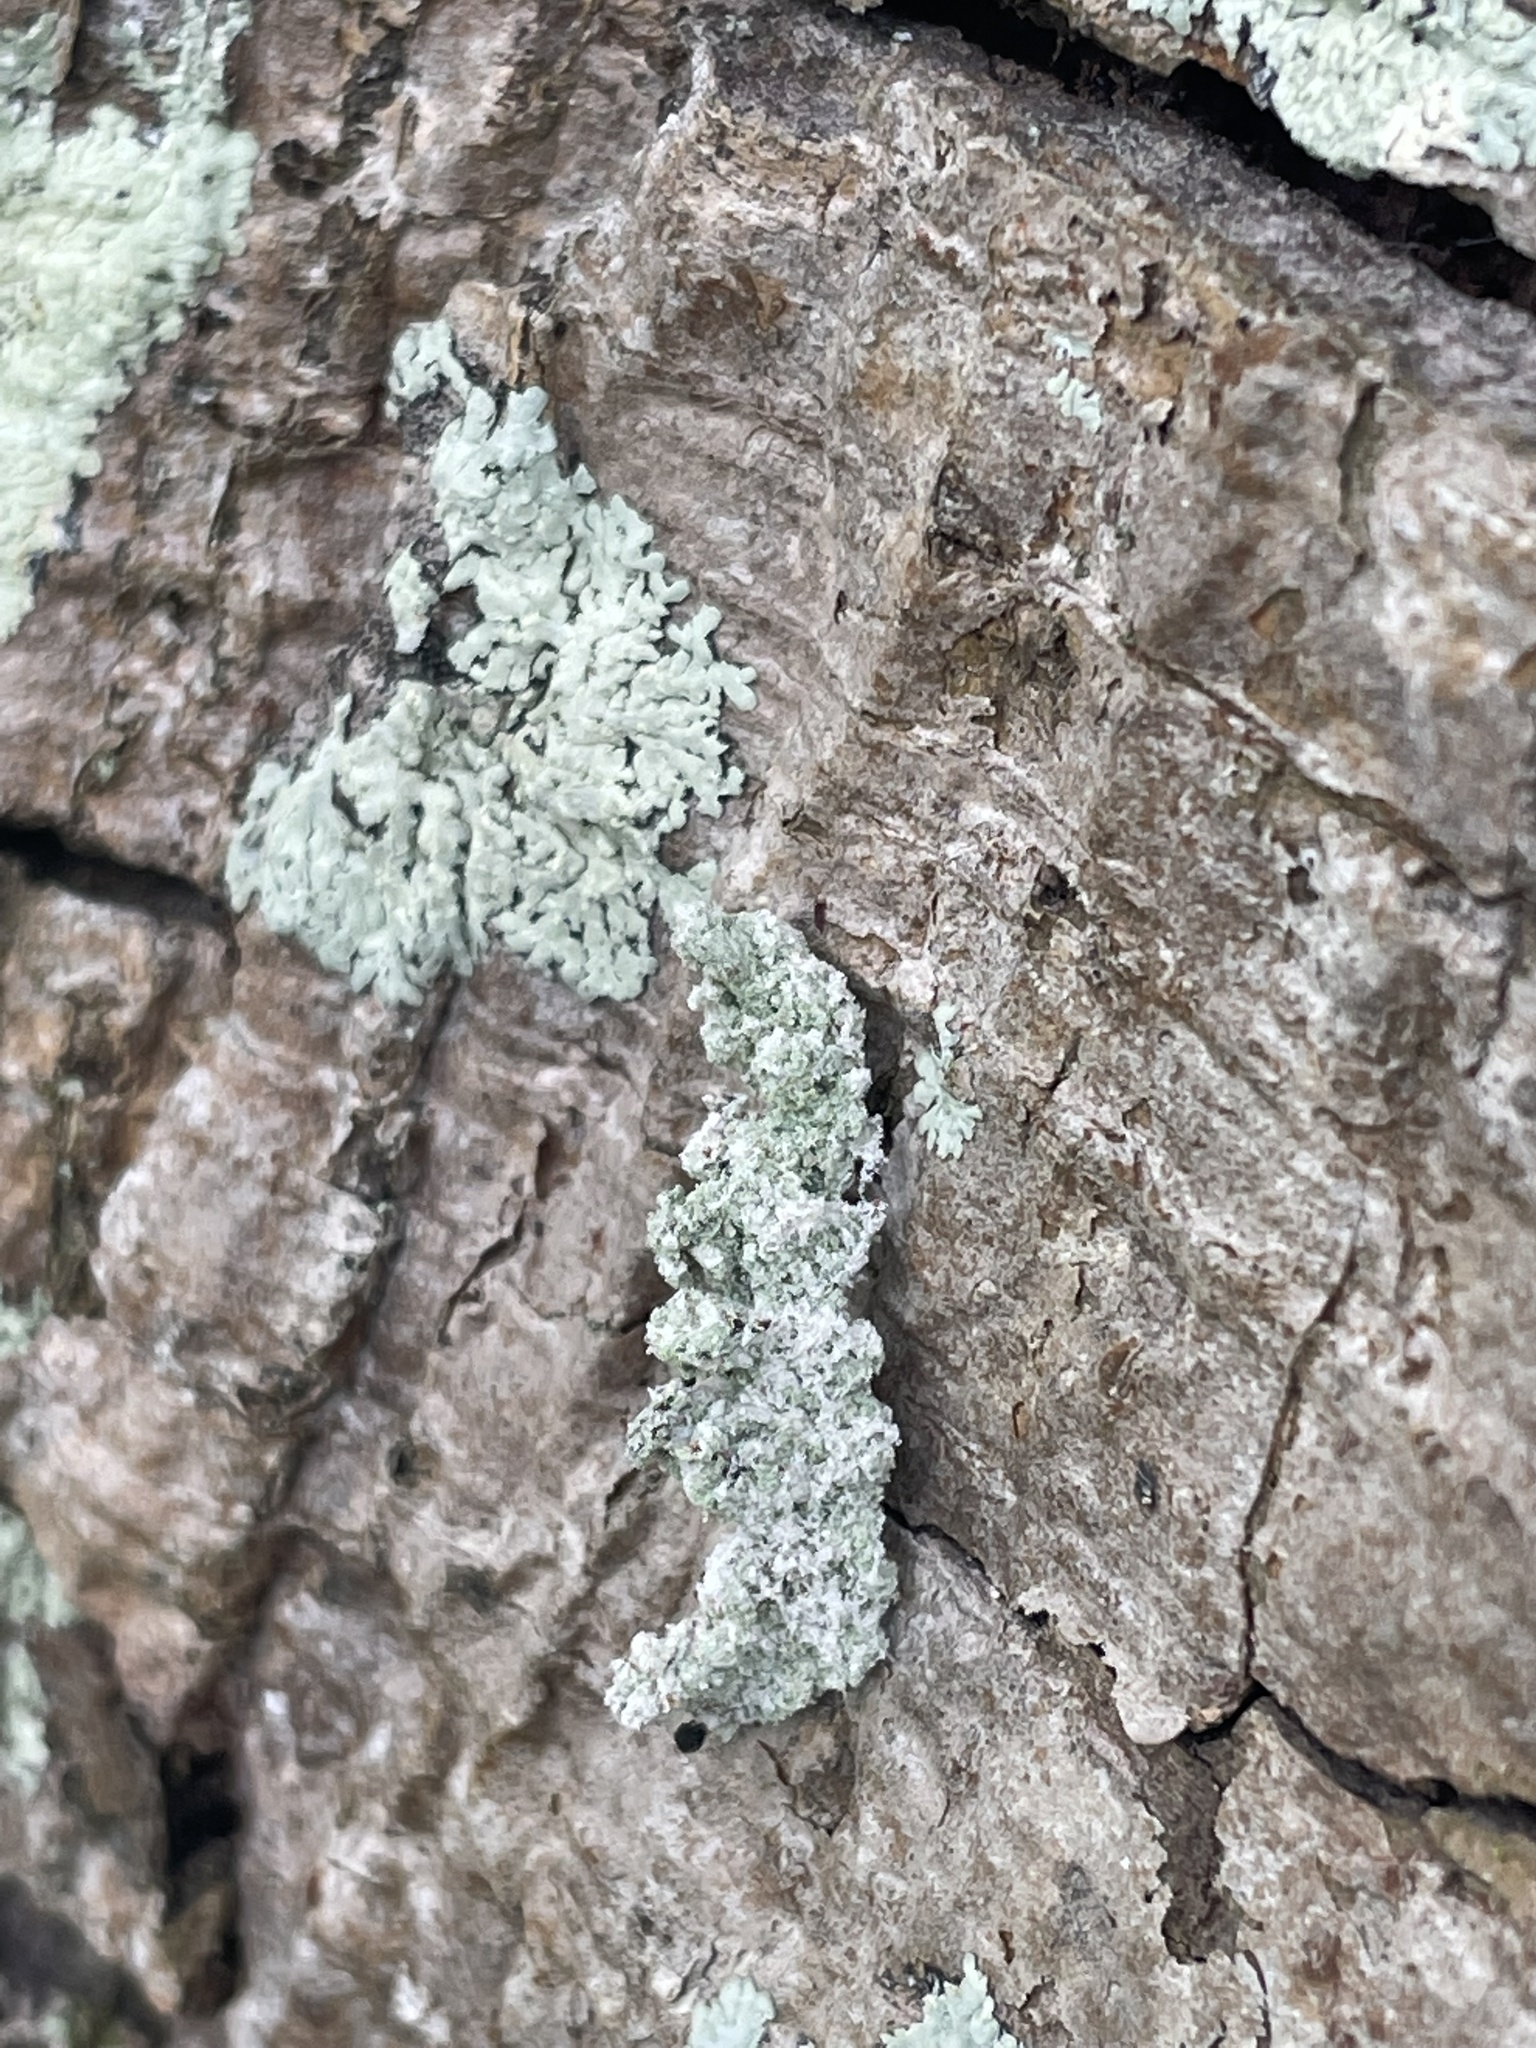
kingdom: Animalia
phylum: Arthropoda
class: Insecta
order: Lepidoptera
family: Noctuidae
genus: Enispa
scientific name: Enispa prolectus
